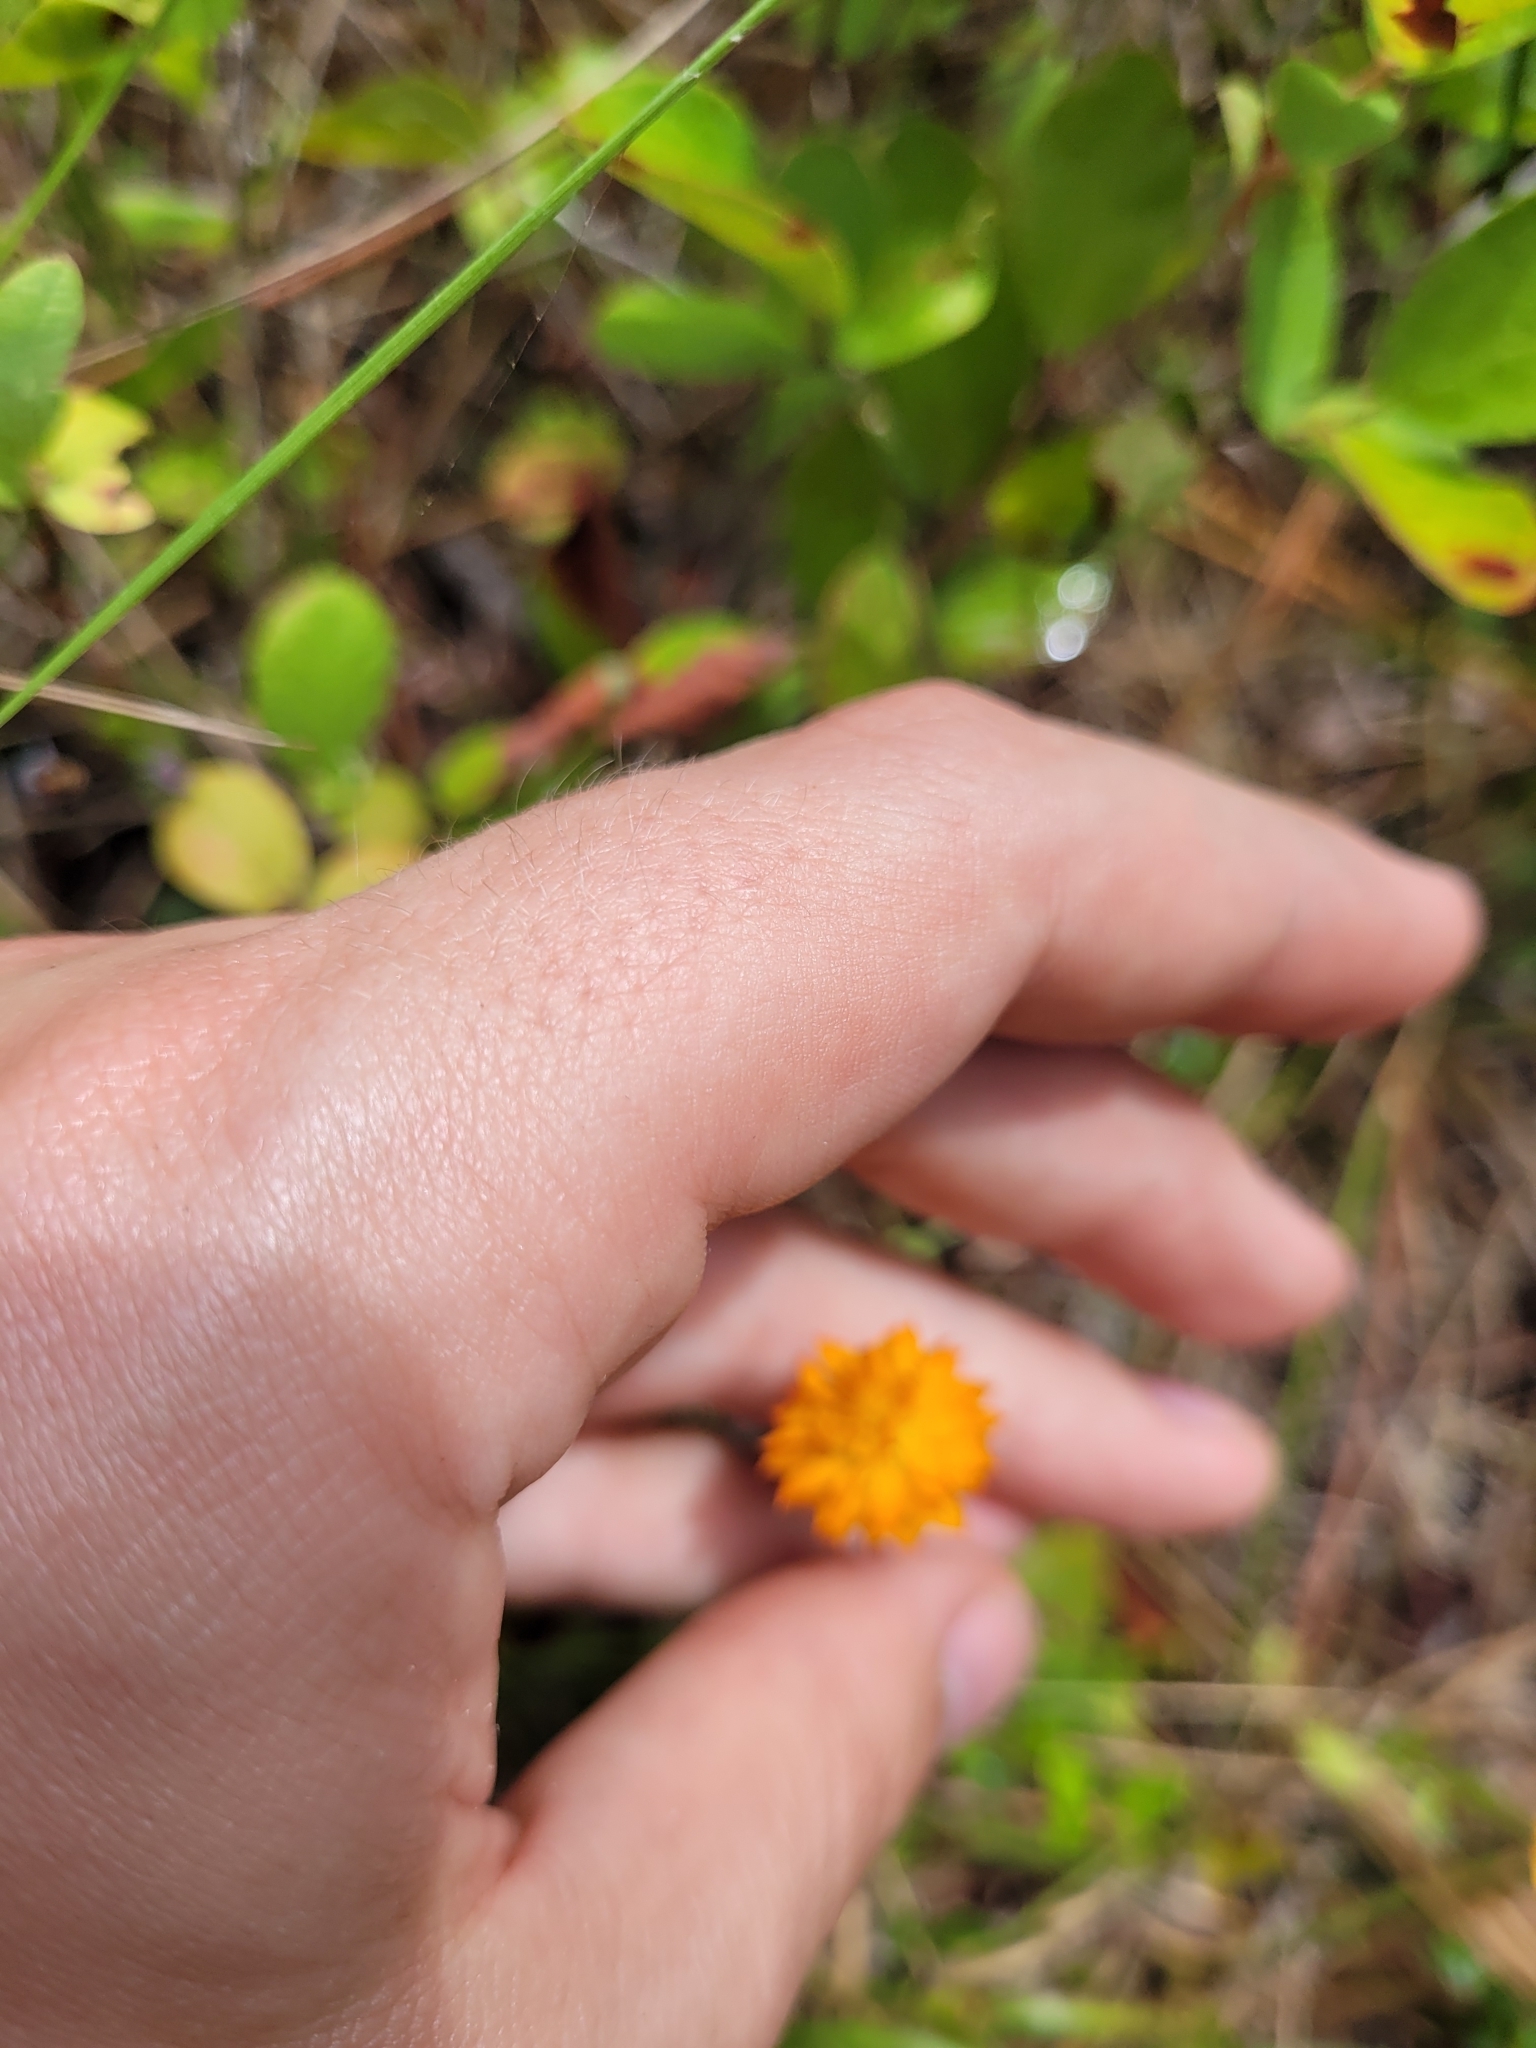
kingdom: Plantae
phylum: Tracheophyta
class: Magnoliopsida
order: Fabales
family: Polygalaceae
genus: Polygala
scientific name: Polygala lutea
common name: Orange milkwort
